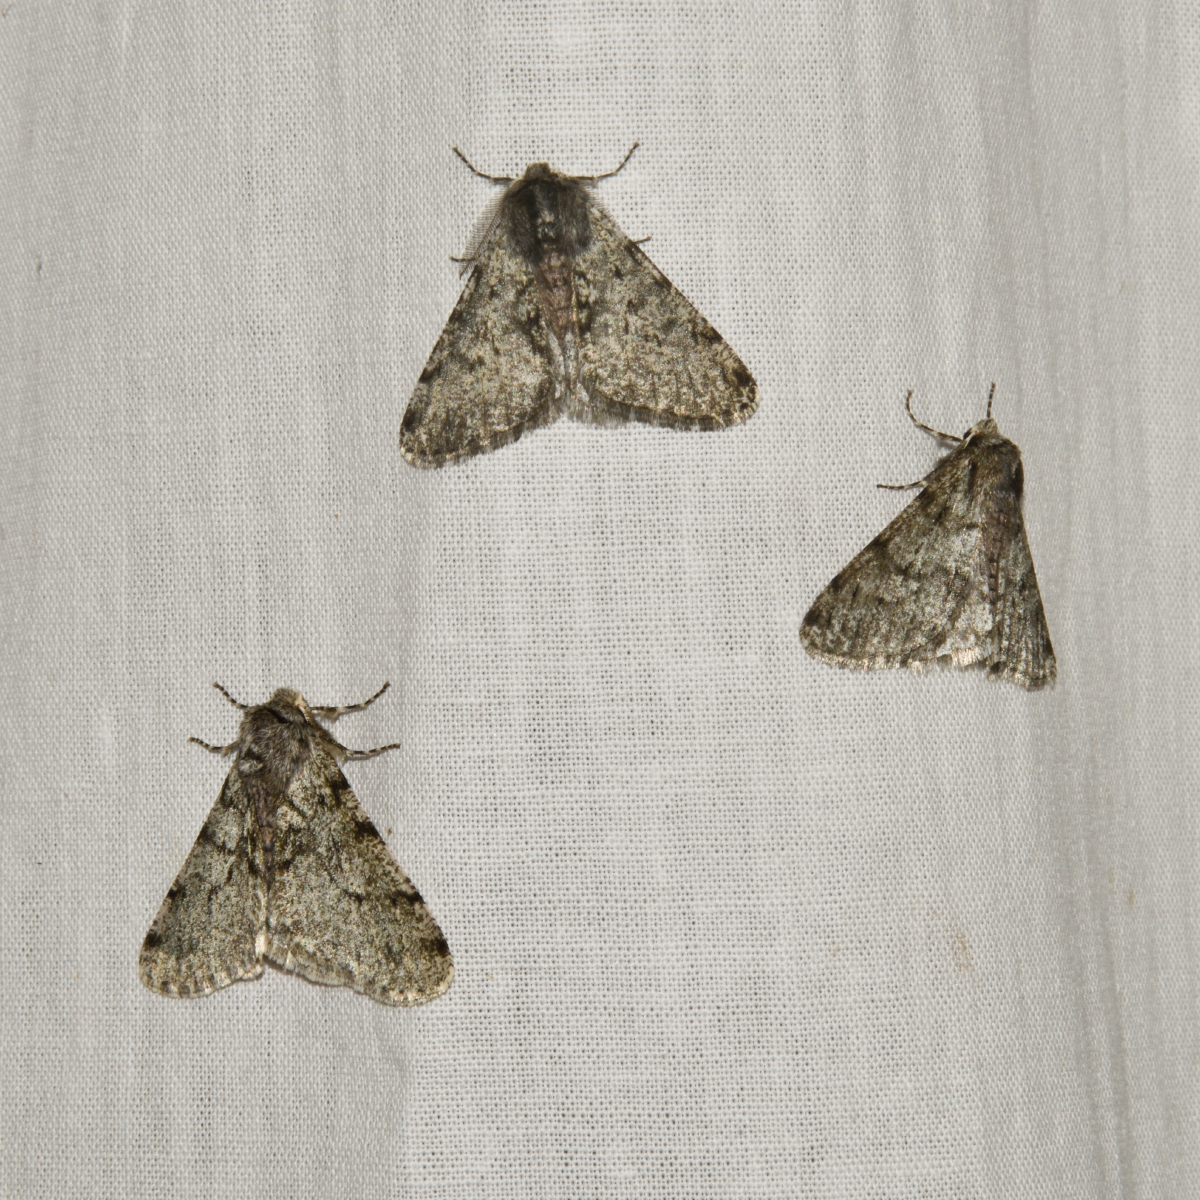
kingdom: Animalia
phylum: Arthropoda
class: Insecta
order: Lepidoptera
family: Geometridae
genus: Phigalia
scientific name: Phigalia pilosaria
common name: Pale brindled beauty
